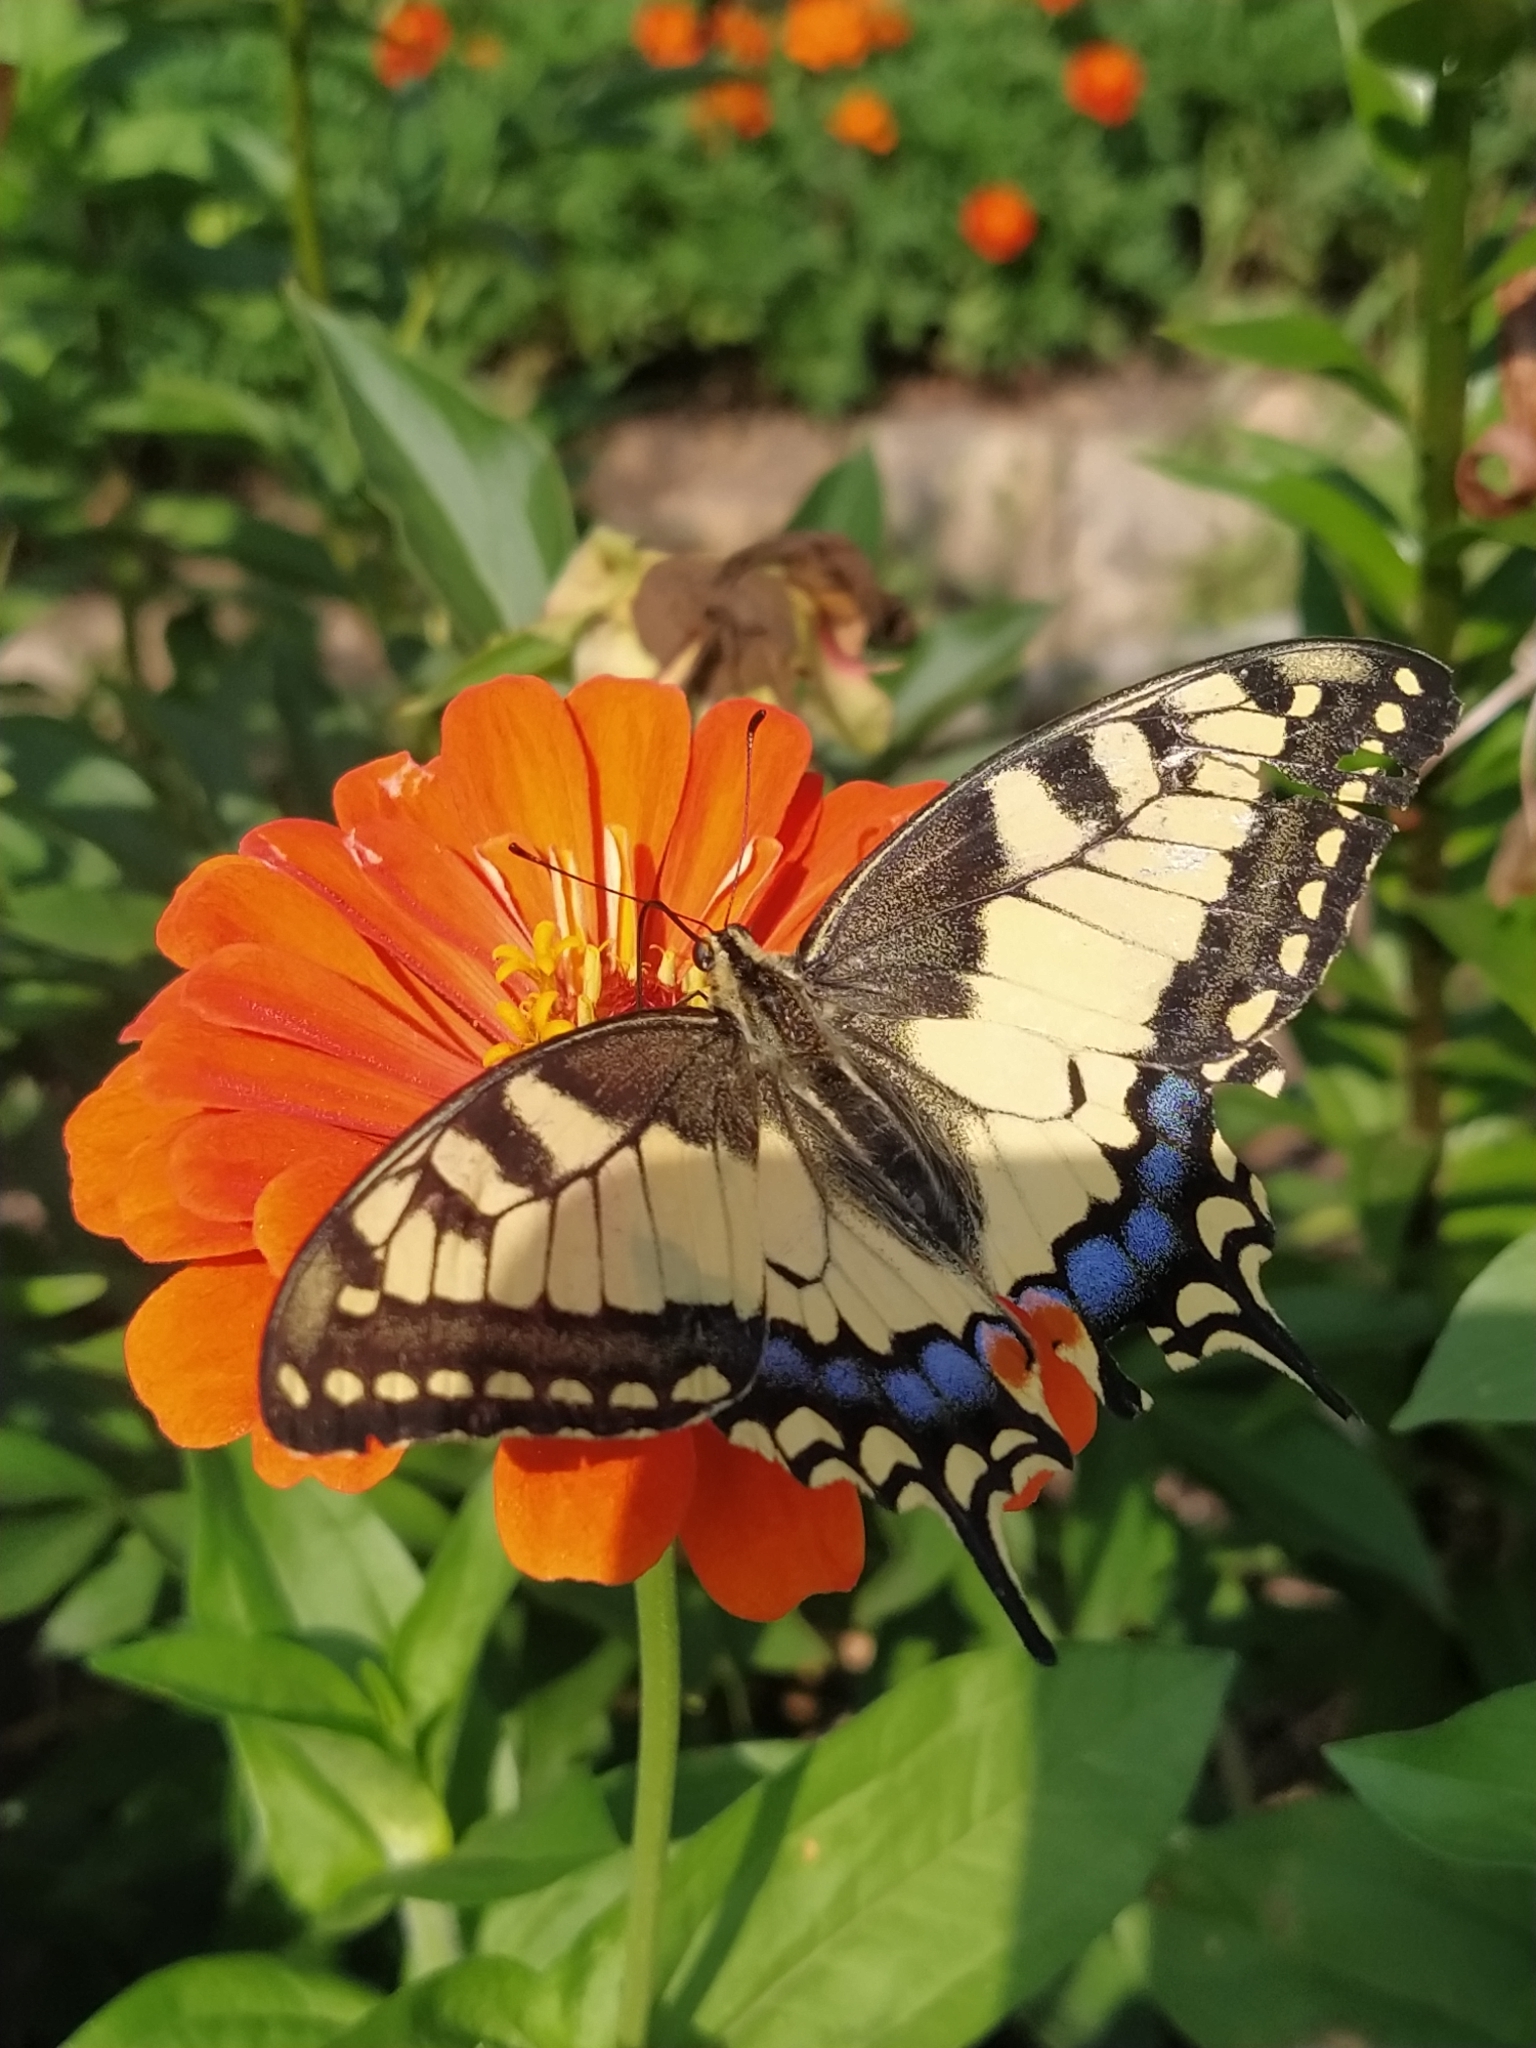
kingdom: Animalia
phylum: Arthropoda
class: Insecta
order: Lepidoptera
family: Papilionidae
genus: Papilio
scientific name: Papilio machaon
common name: Swallowtail
